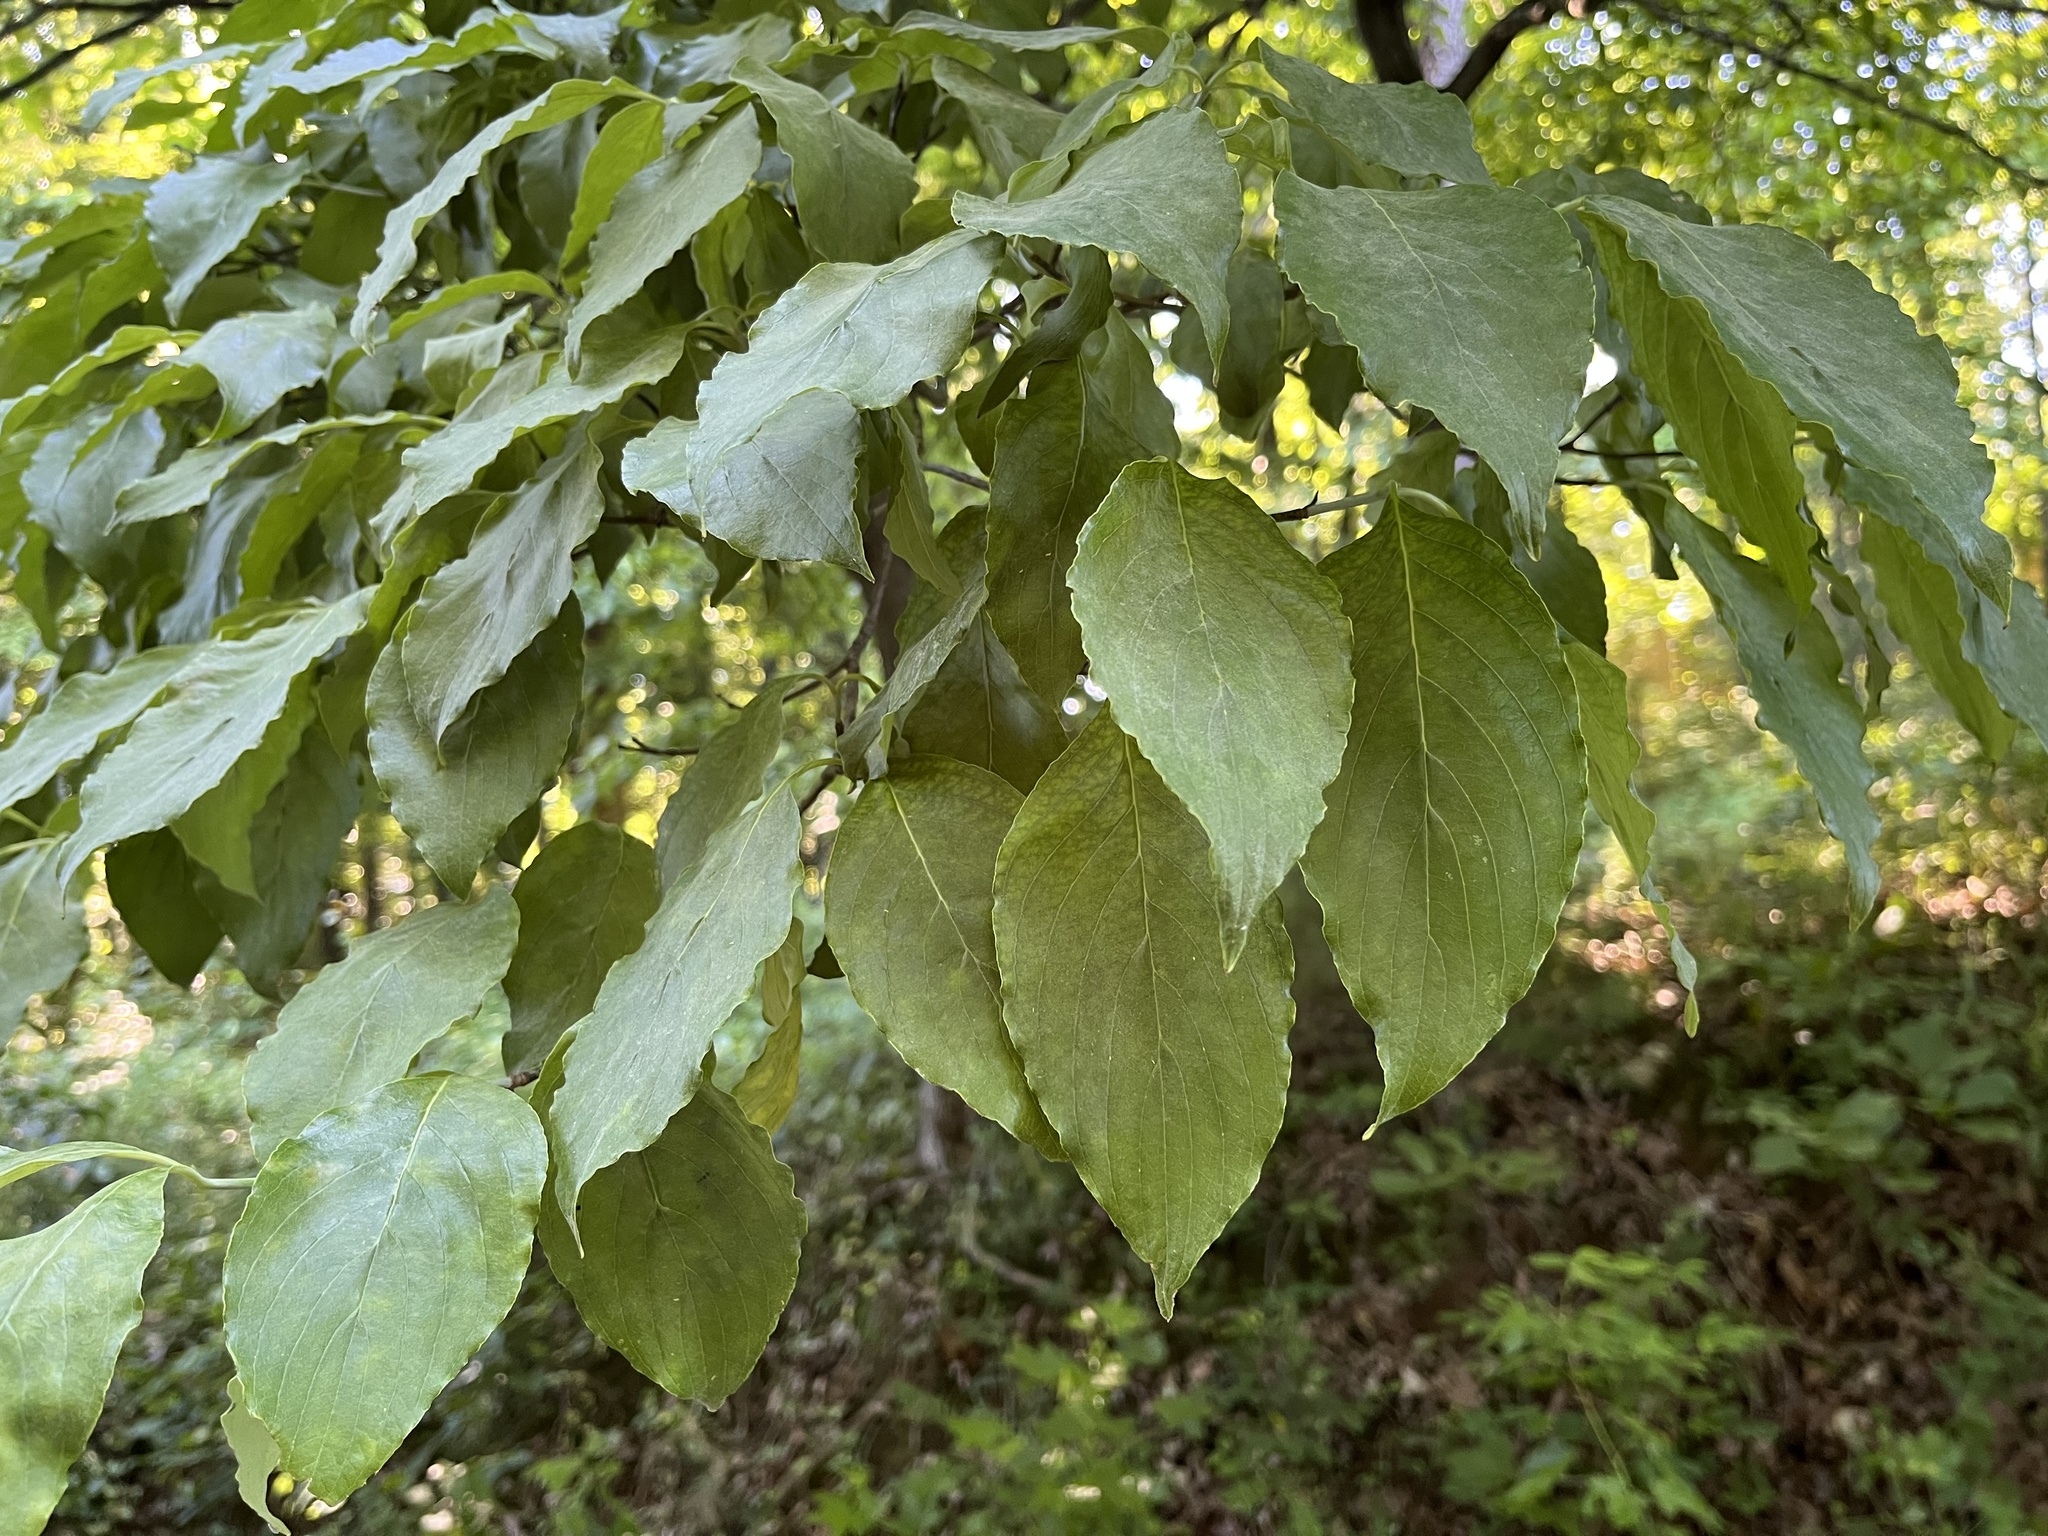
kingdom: Plantae
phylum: Tracheophyta
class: Magnoliopsida
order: Cornales
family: Cornaceae
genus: Cornus
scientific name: Cornus florida
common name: Flowering dogwood
